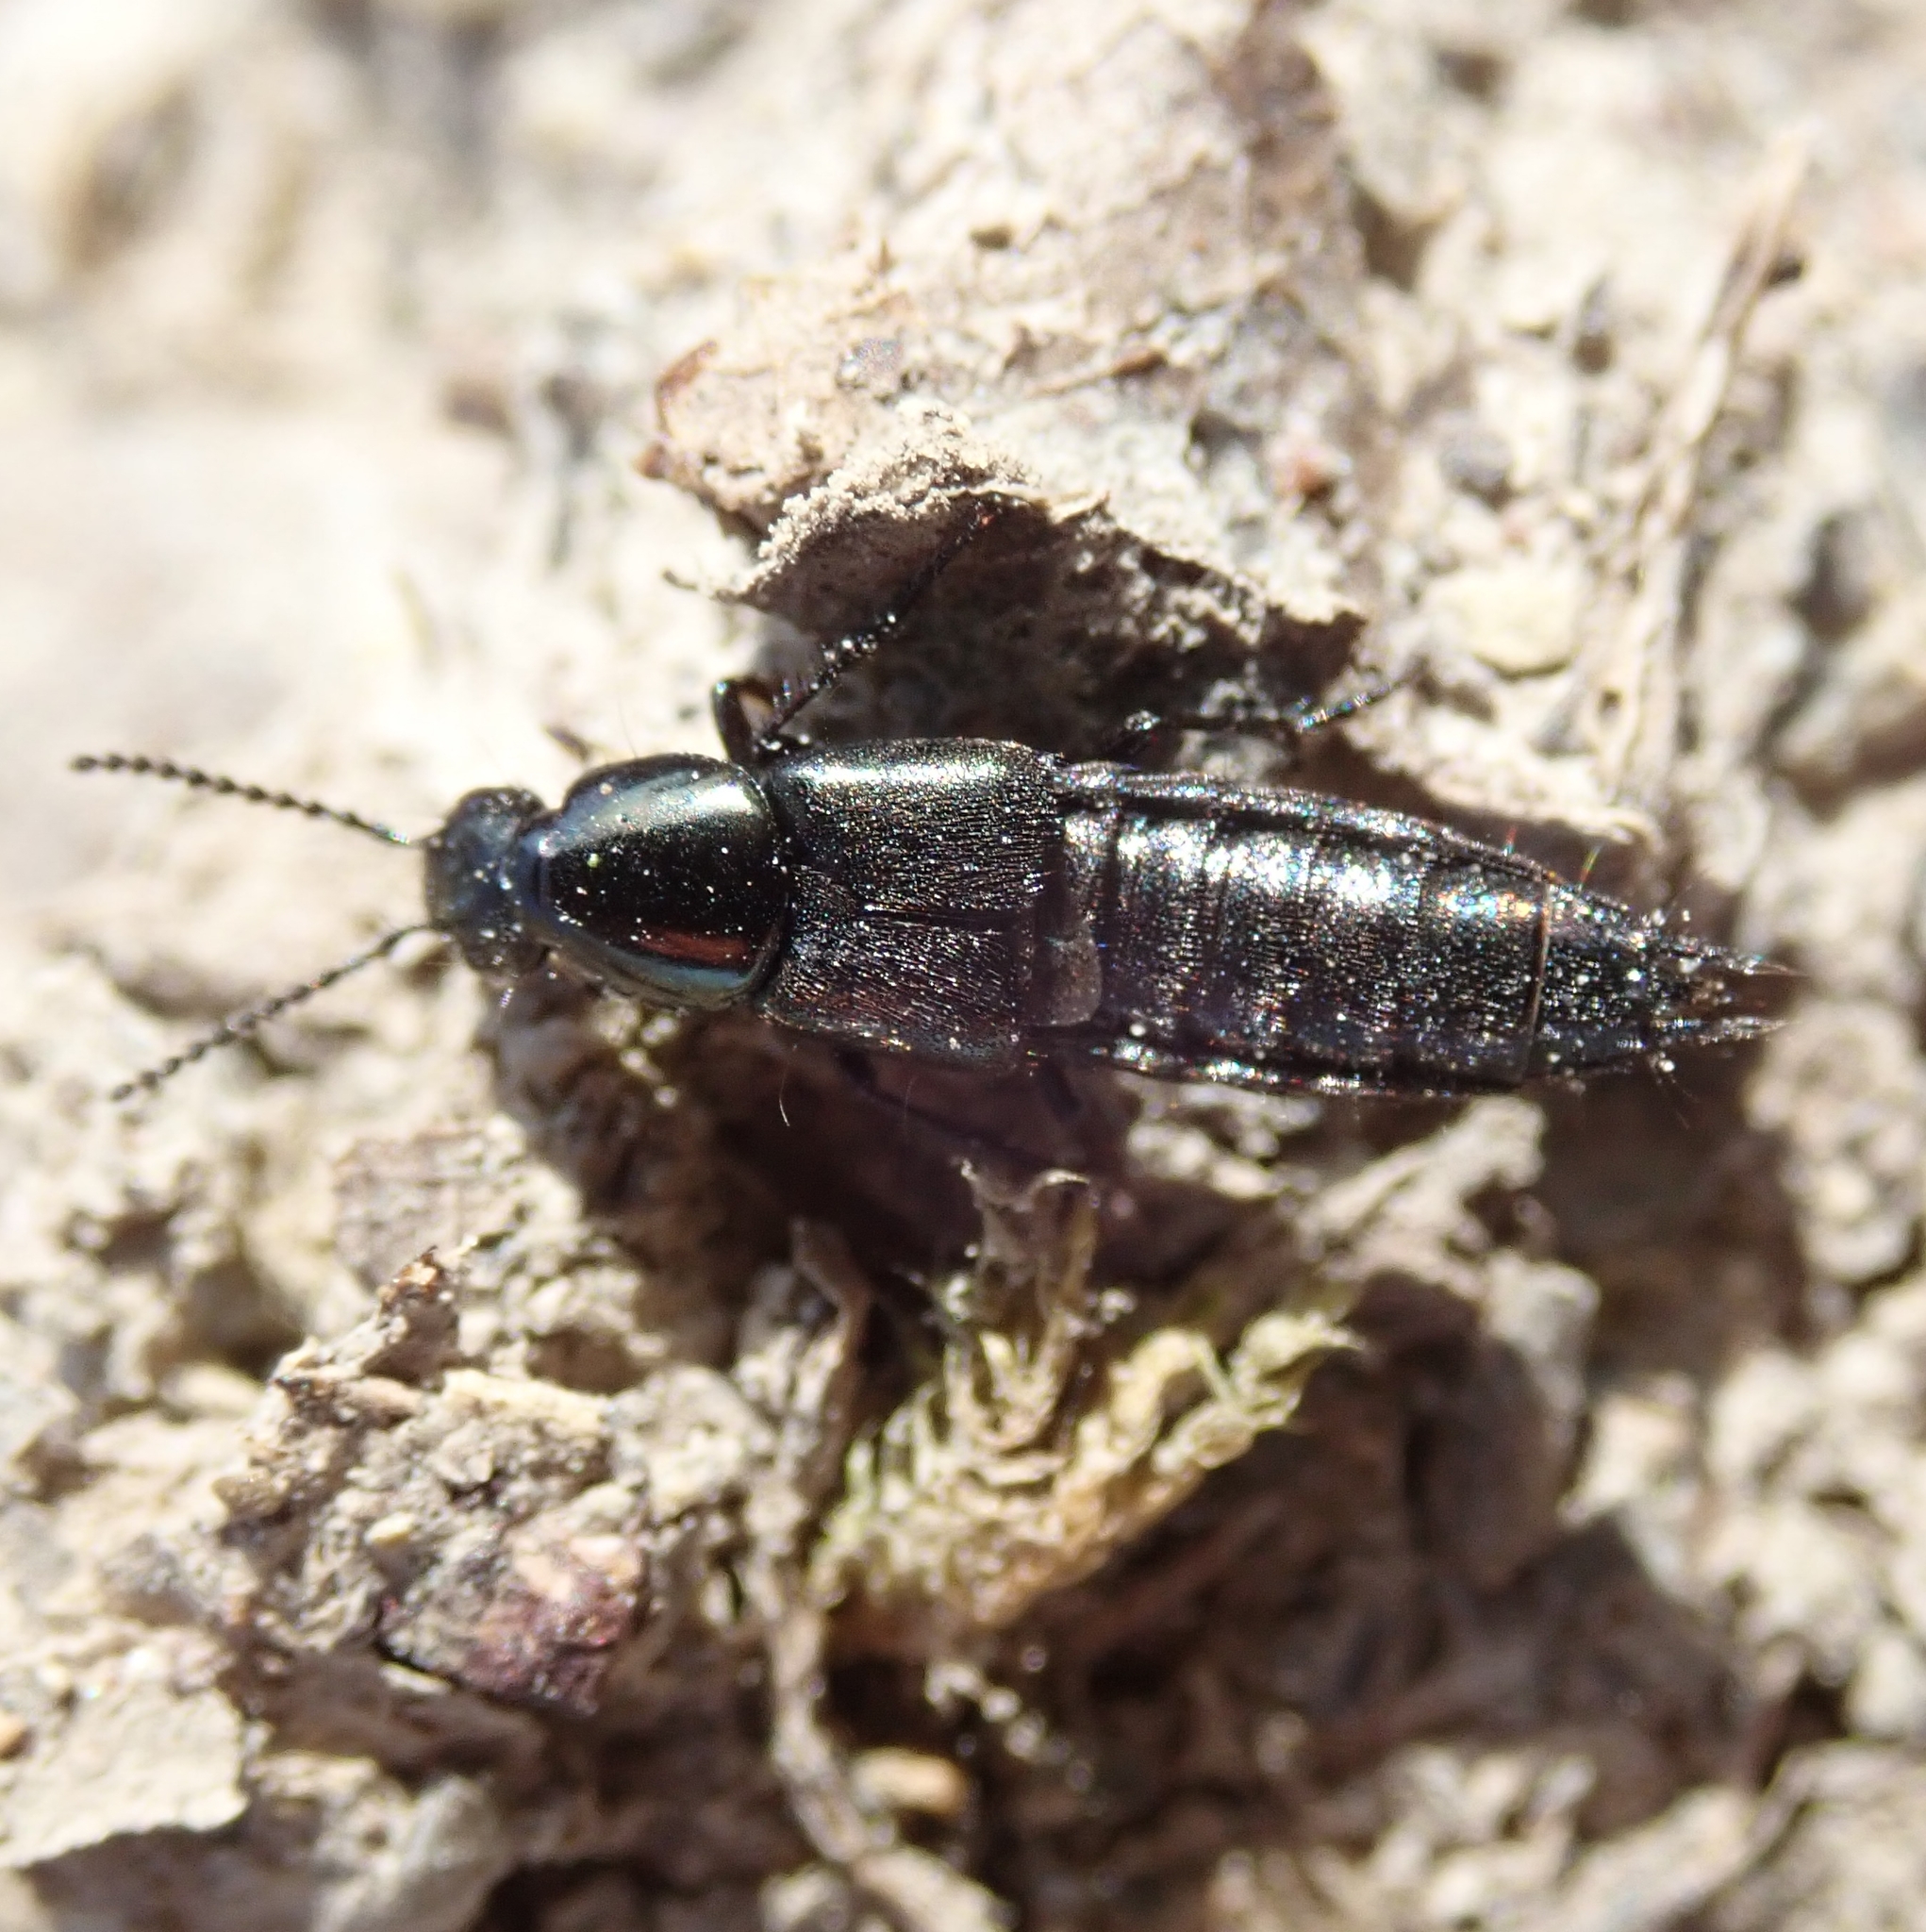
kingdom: Animalia
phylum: Arthropoda
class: Insecta
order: Coleoptera
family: Staphylinidae
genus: Philonthus
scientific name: Philonthus laminatus
